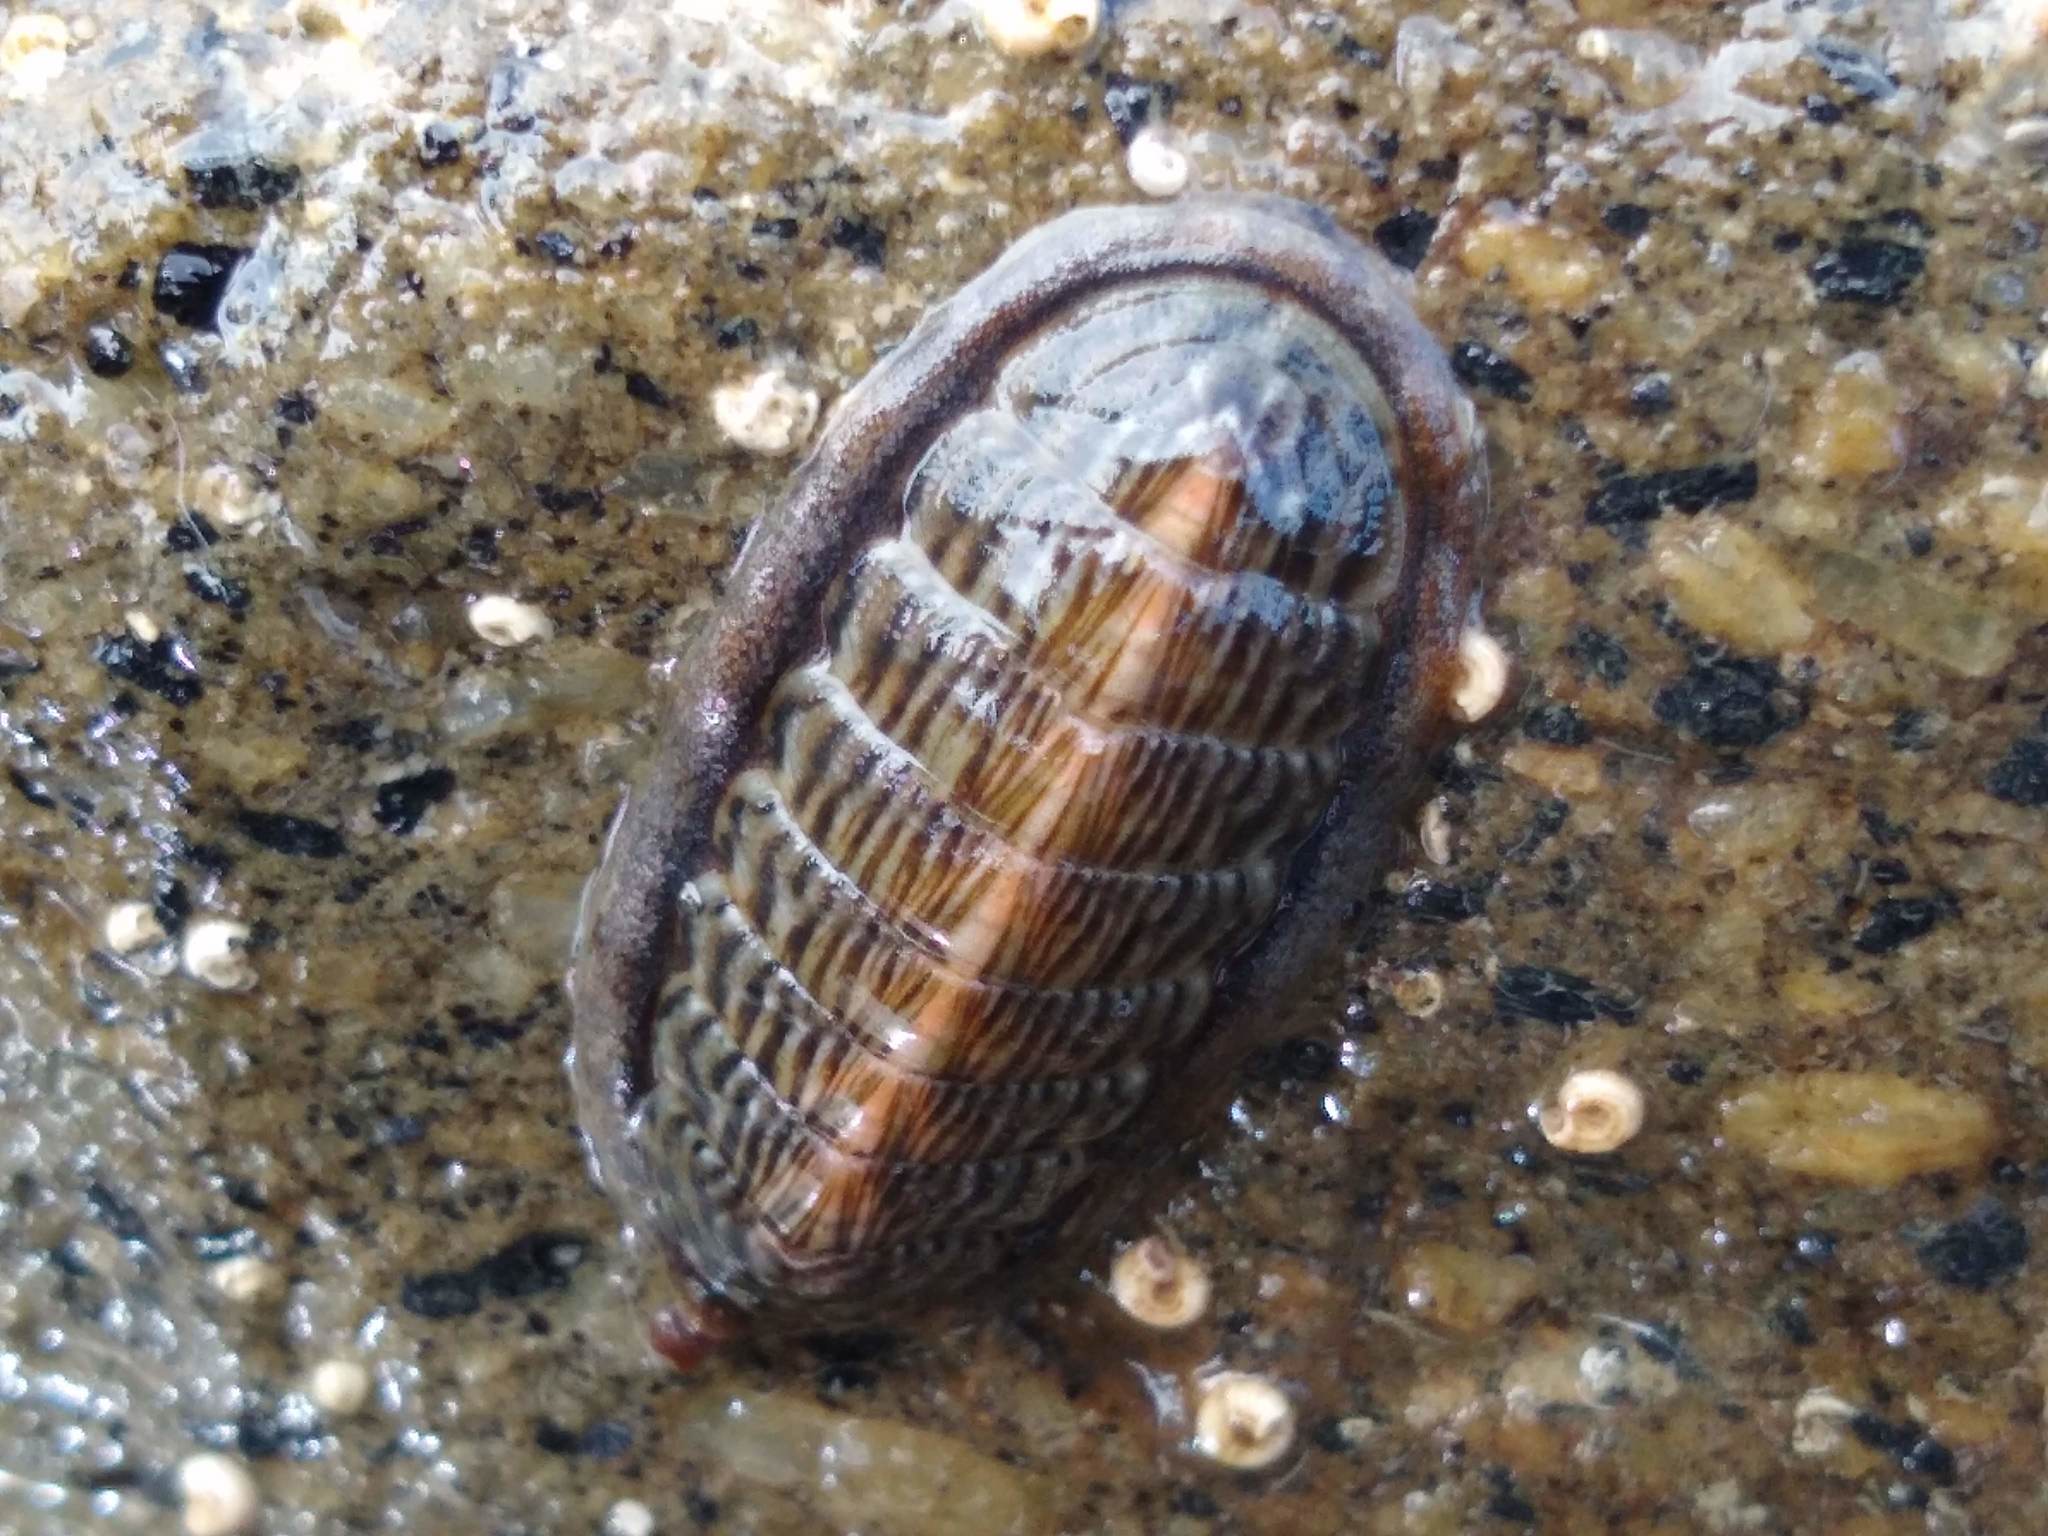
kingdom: Animalia
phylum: Mollusca
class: Polyplacophora
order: Chitonida
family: Ischnochitonidae
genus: Ischnochiton
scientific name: Ischnochiton maorianus
